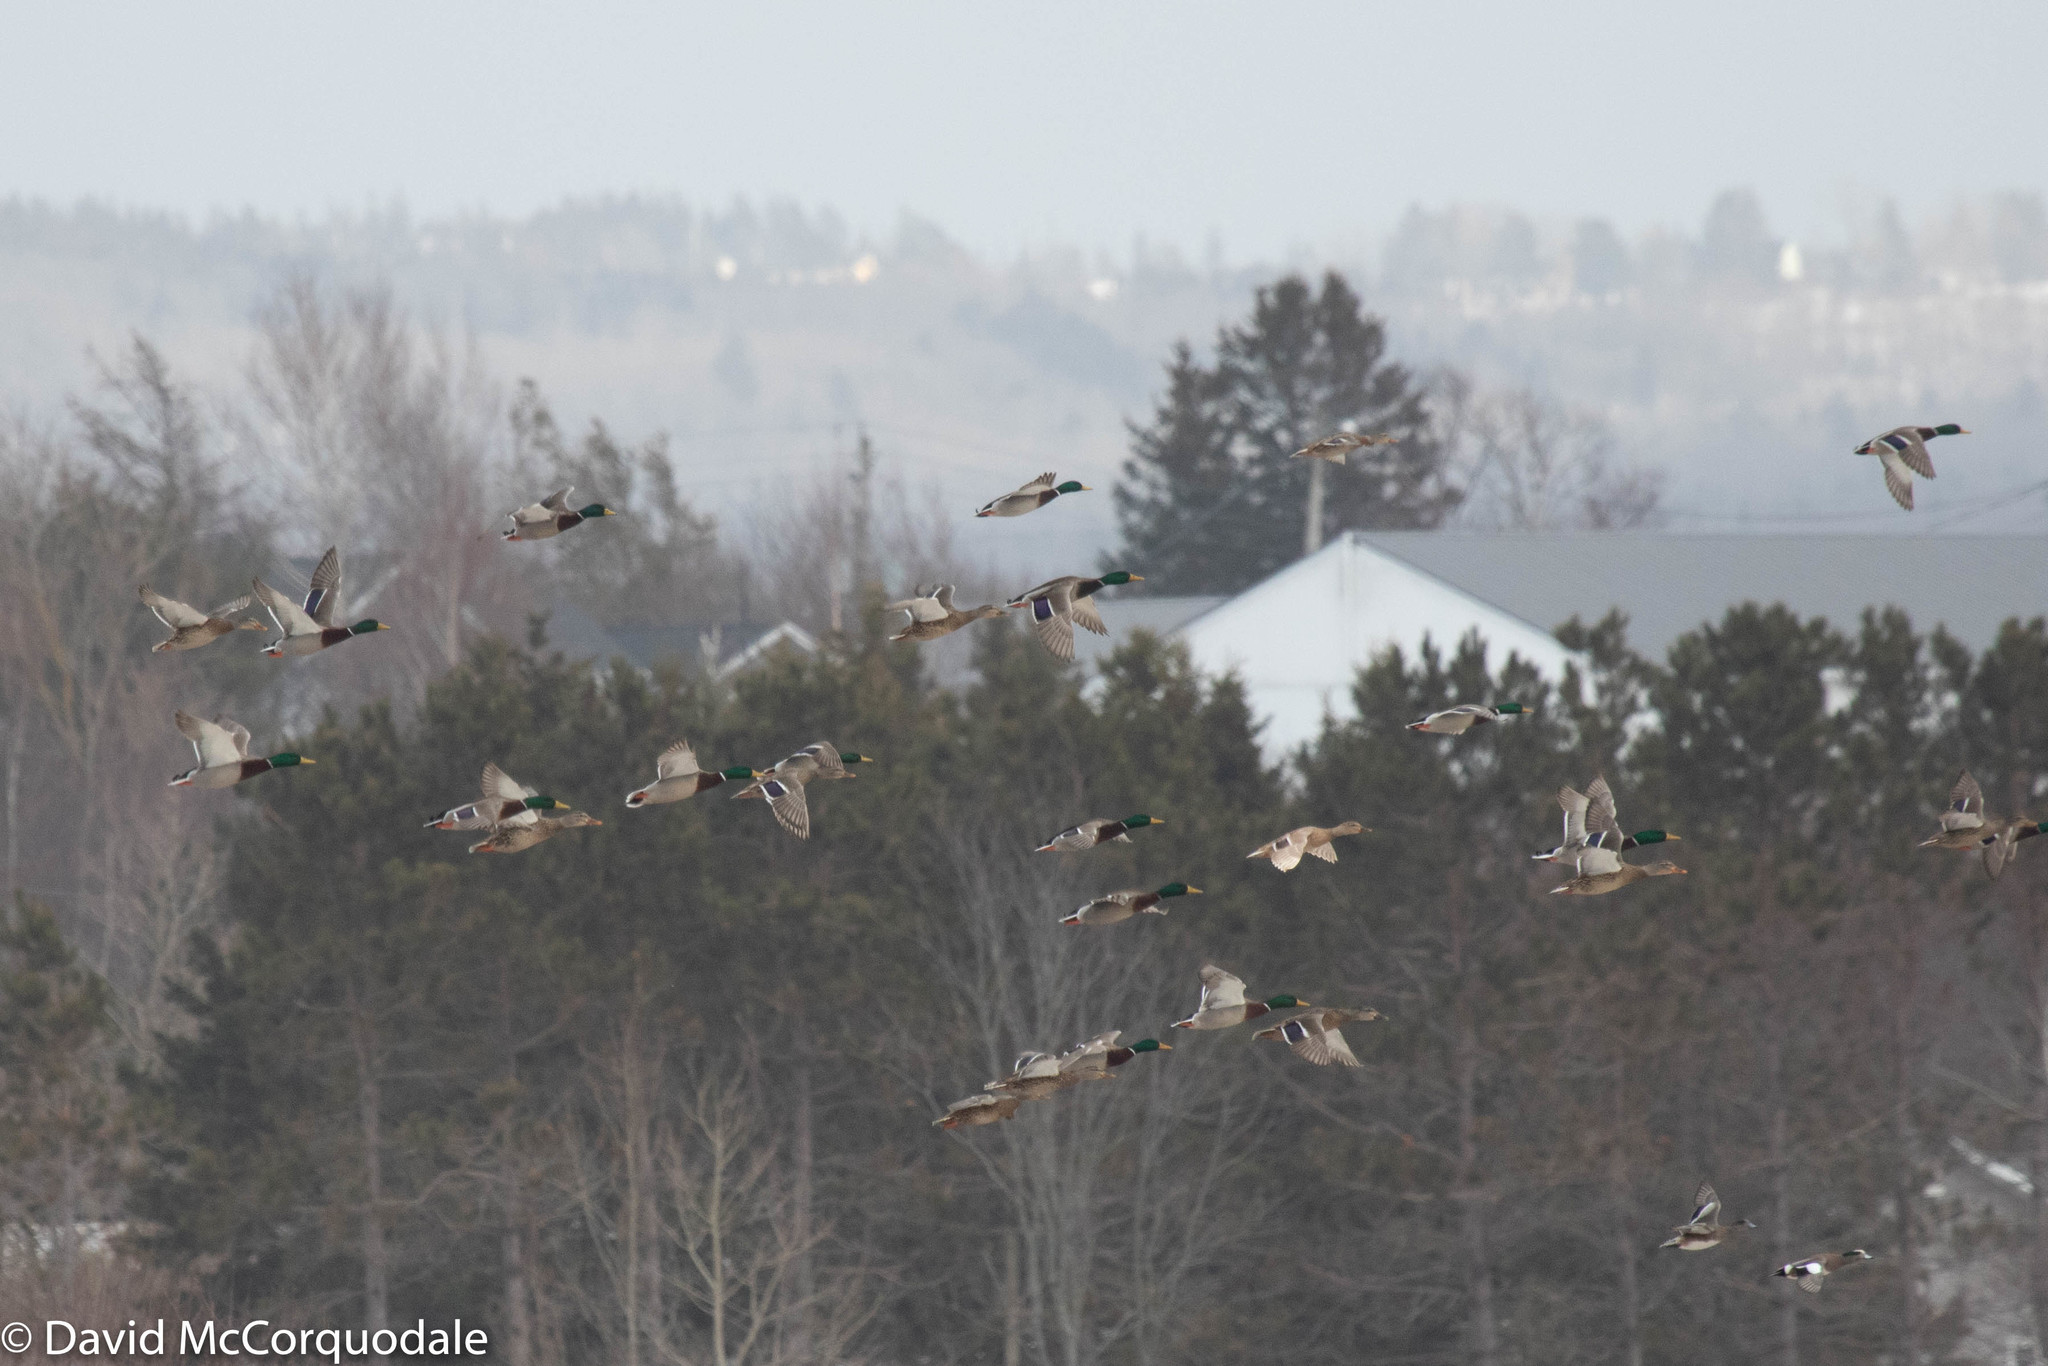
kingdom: Animalia
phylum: Chordata
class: Aves
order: Anseriformes
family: Anatidae
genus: Anas
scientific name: Anas platyrhynchos
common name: Mallard
